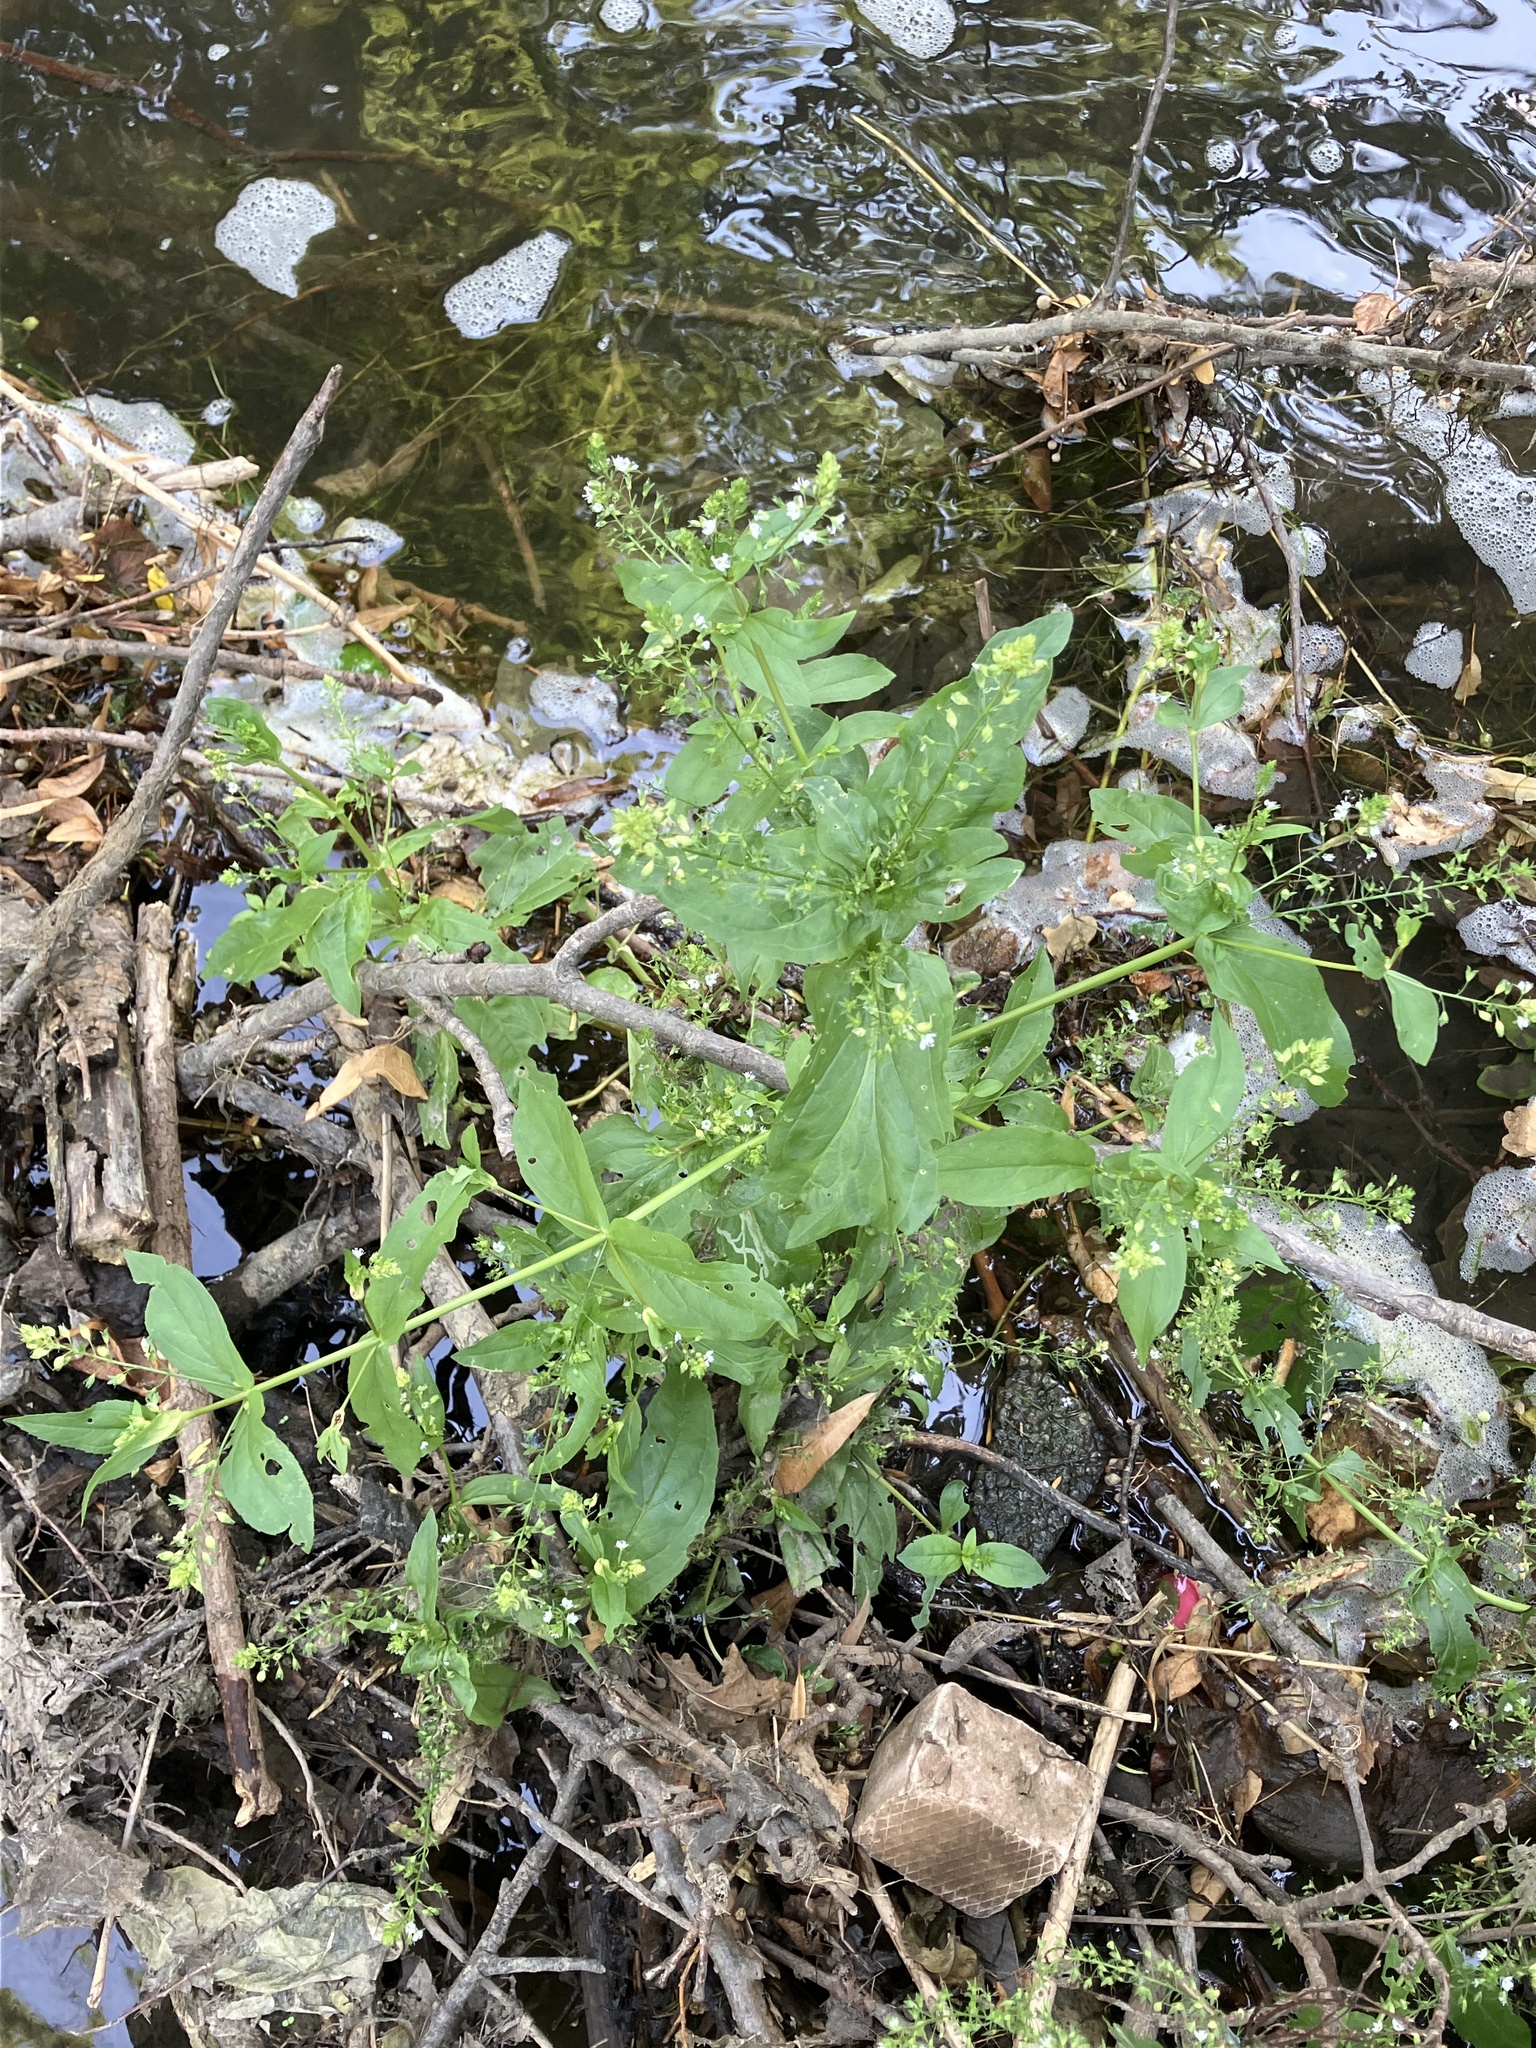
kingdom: Plantae
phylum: Tracheophyta
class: Magnoliopsida
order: Lamiales
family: Plantaginaceae
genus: Veronica
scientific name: Veronica anagallis-aquatica
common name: Water speedwell
